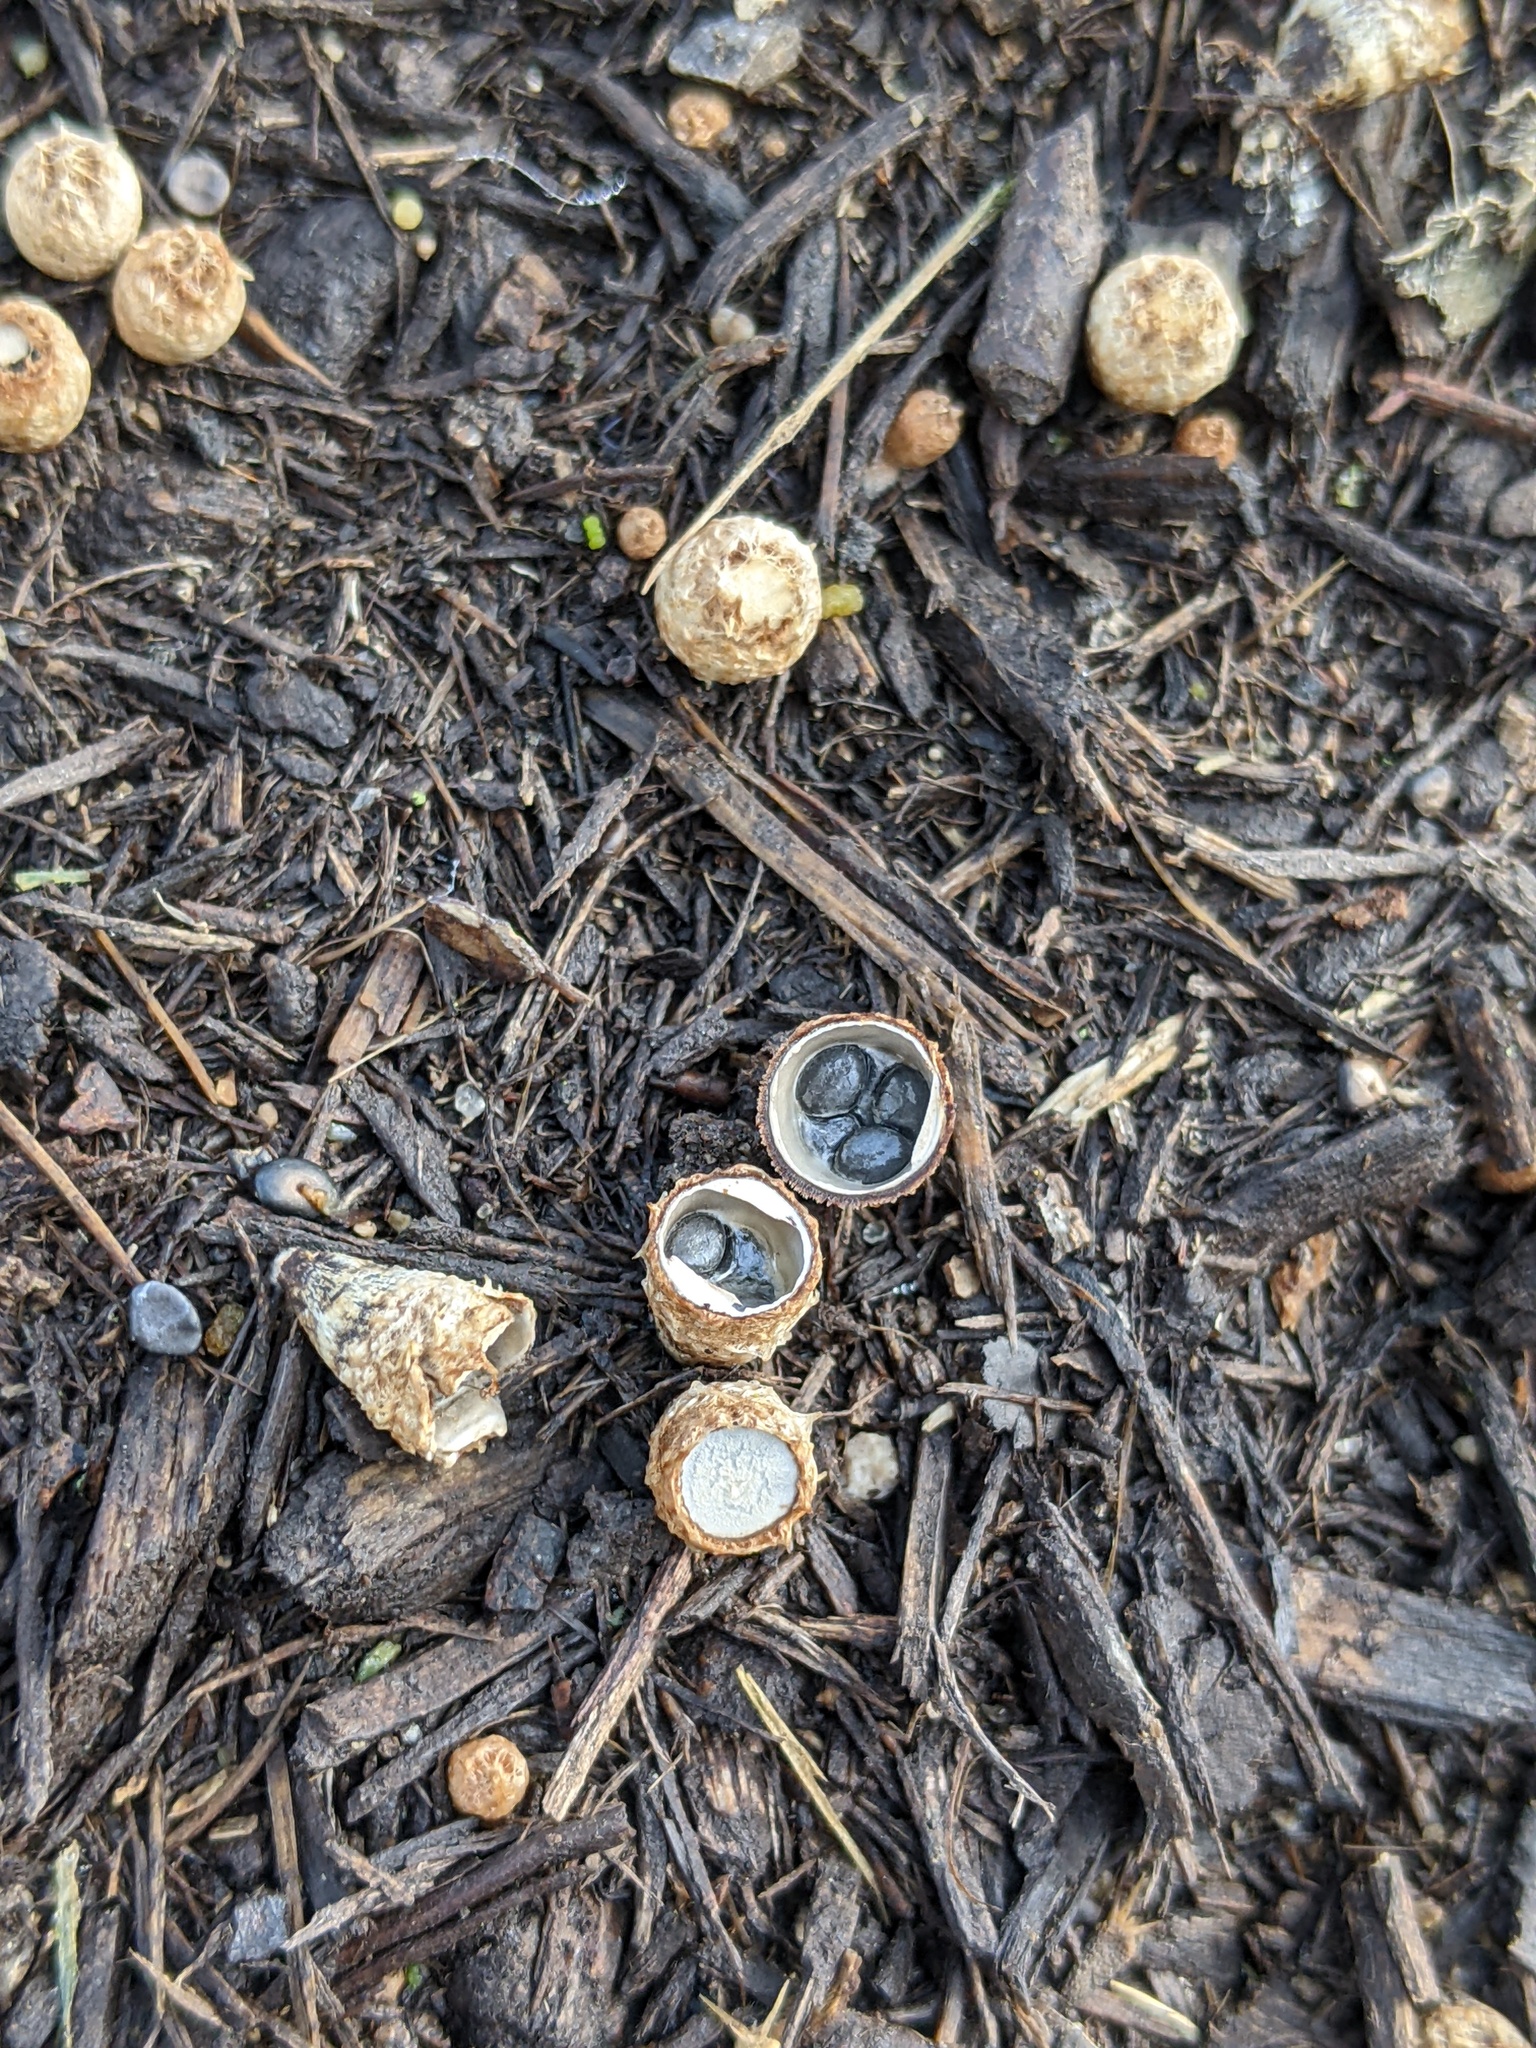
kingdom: Fungi
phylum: Basidiomycota
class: Agaricomycetes
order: Agaricales
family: Agaricaceae
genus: Cyathus
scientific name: Cyathus stercoreus
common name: Dung bird's nest
